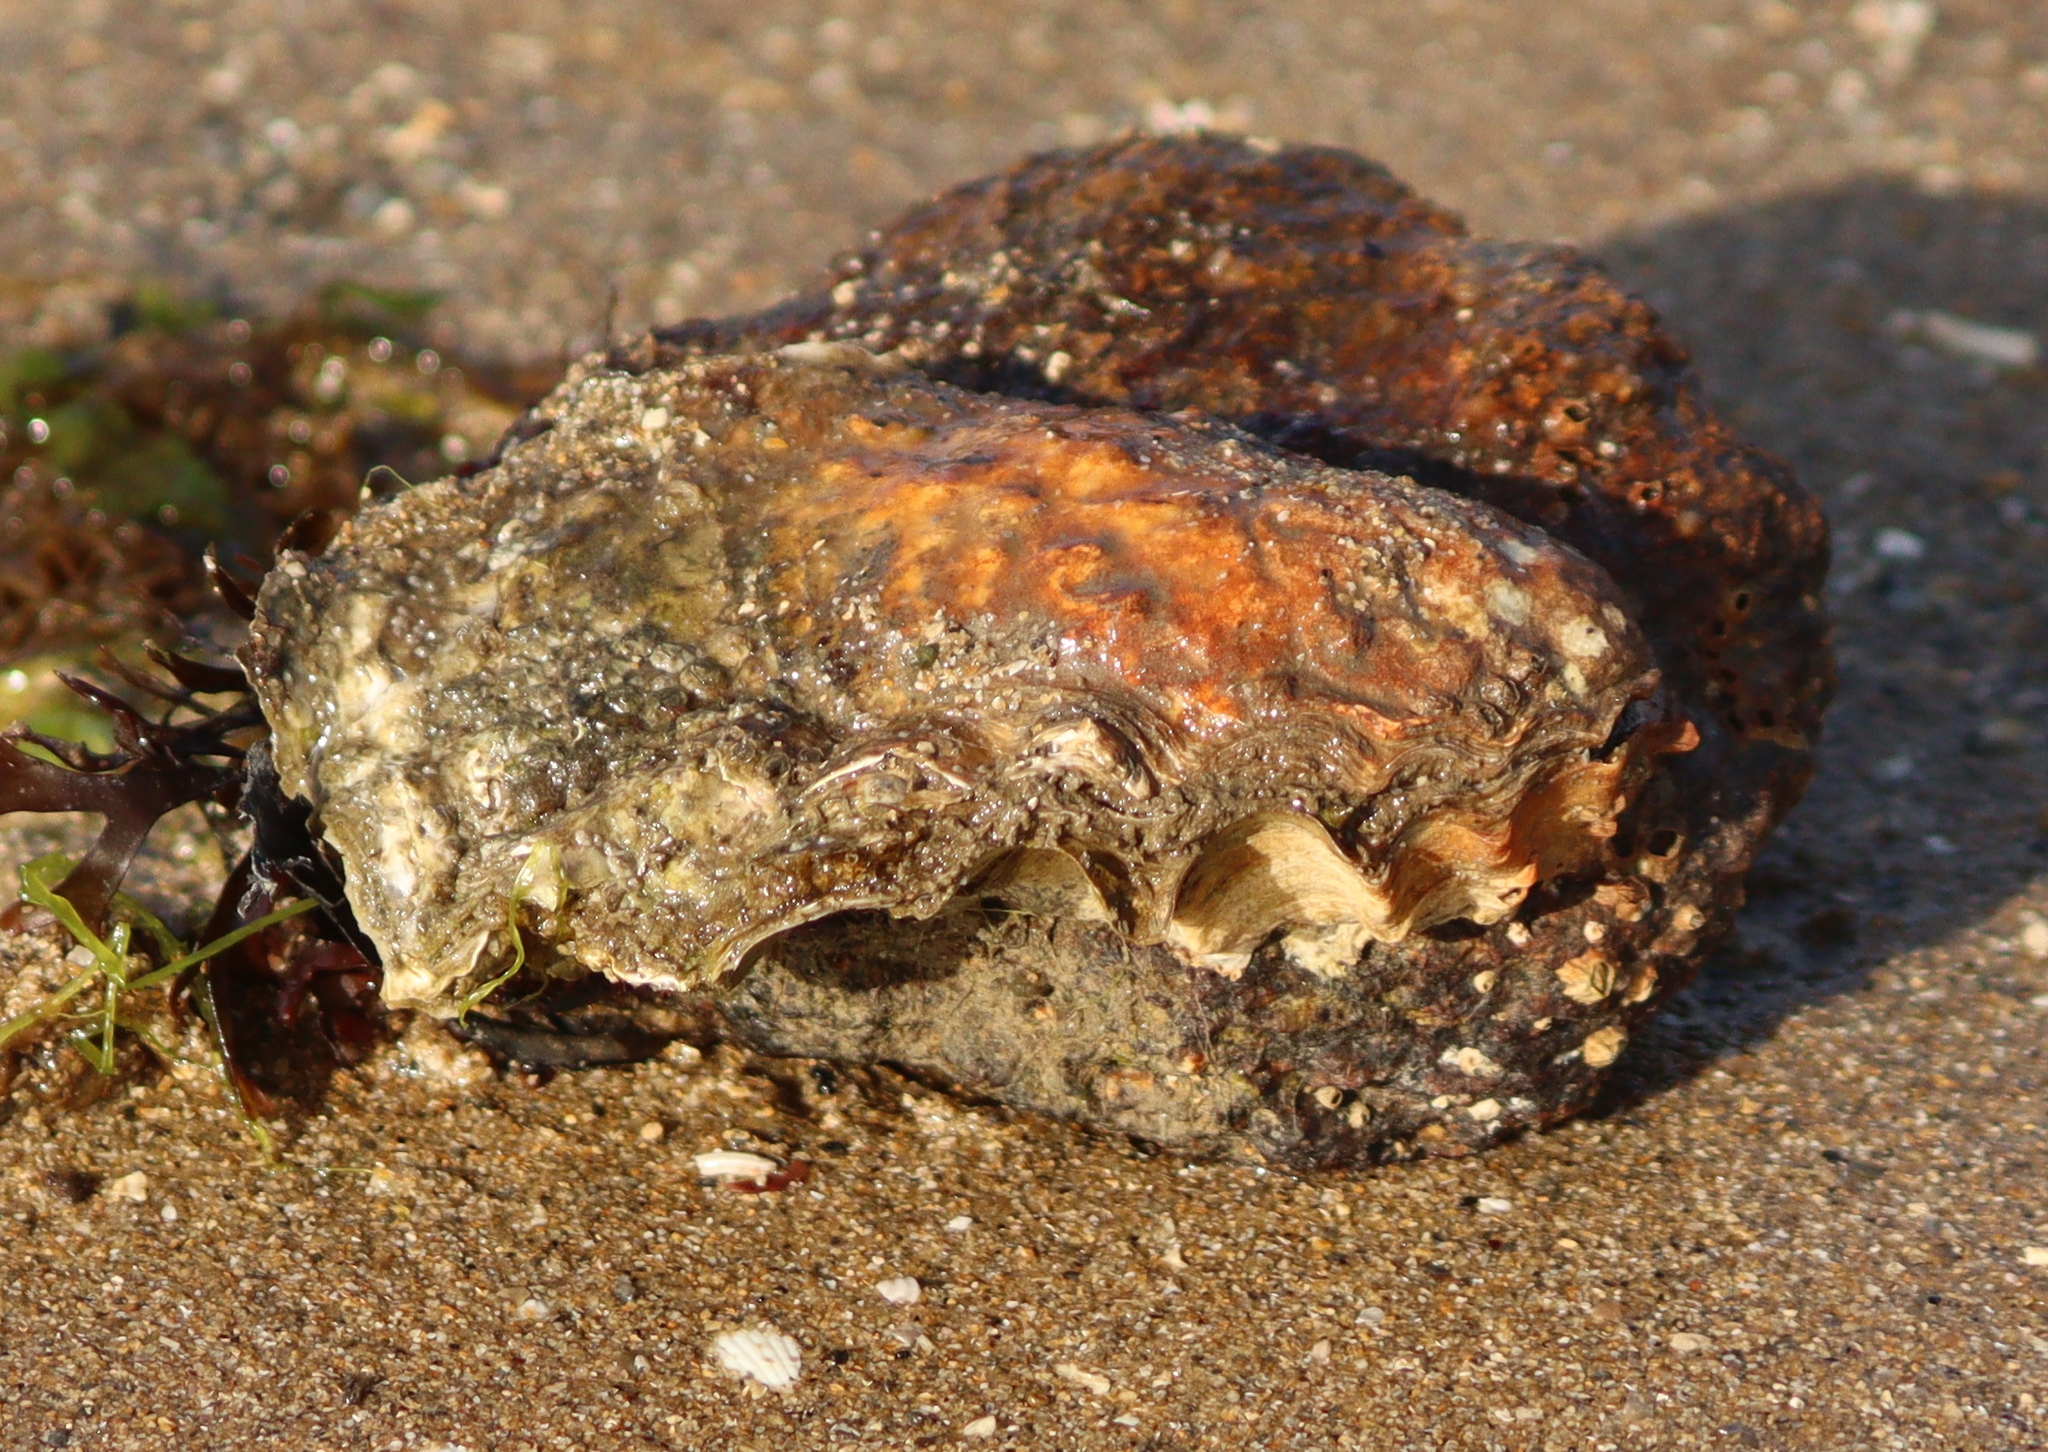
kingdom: Animalia
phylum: Mollusca
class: Bivalvia
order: Ostreida
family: Ostreidae
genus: Magallana
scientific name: Magallana gigas
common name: Pacific oyster
